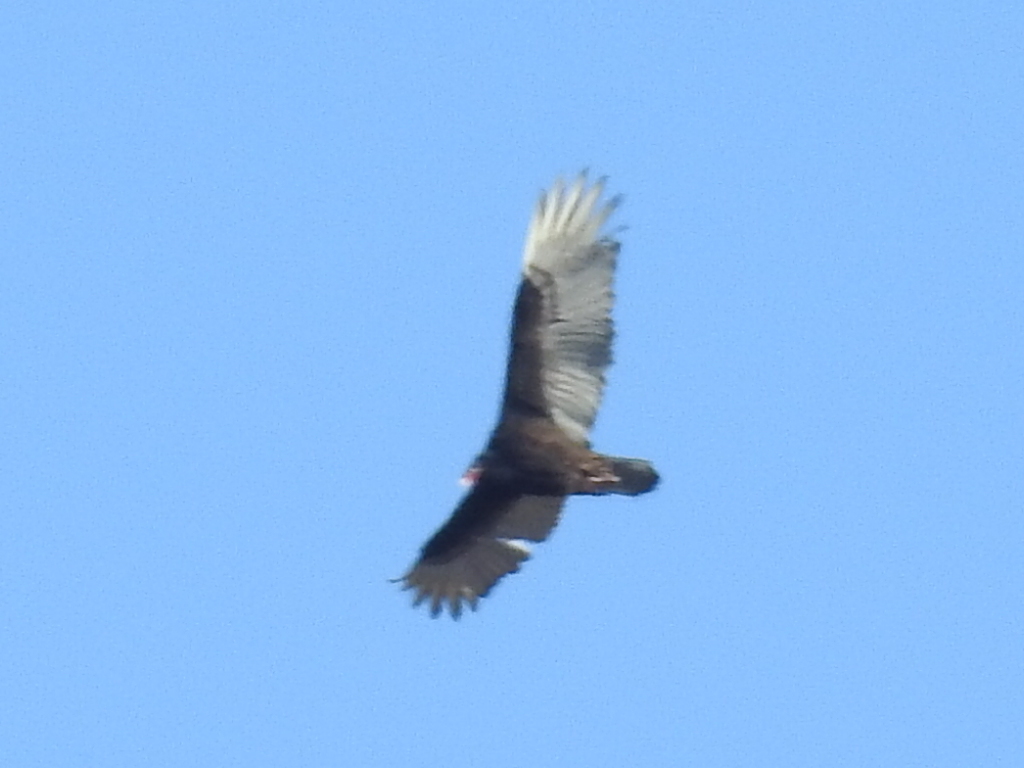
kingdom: Animalia
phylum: Chordata
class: Aves
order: Accipitriformes
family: Cathartidae
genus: Cathartes
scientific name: Cathartes aura
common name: Turkey vulture
